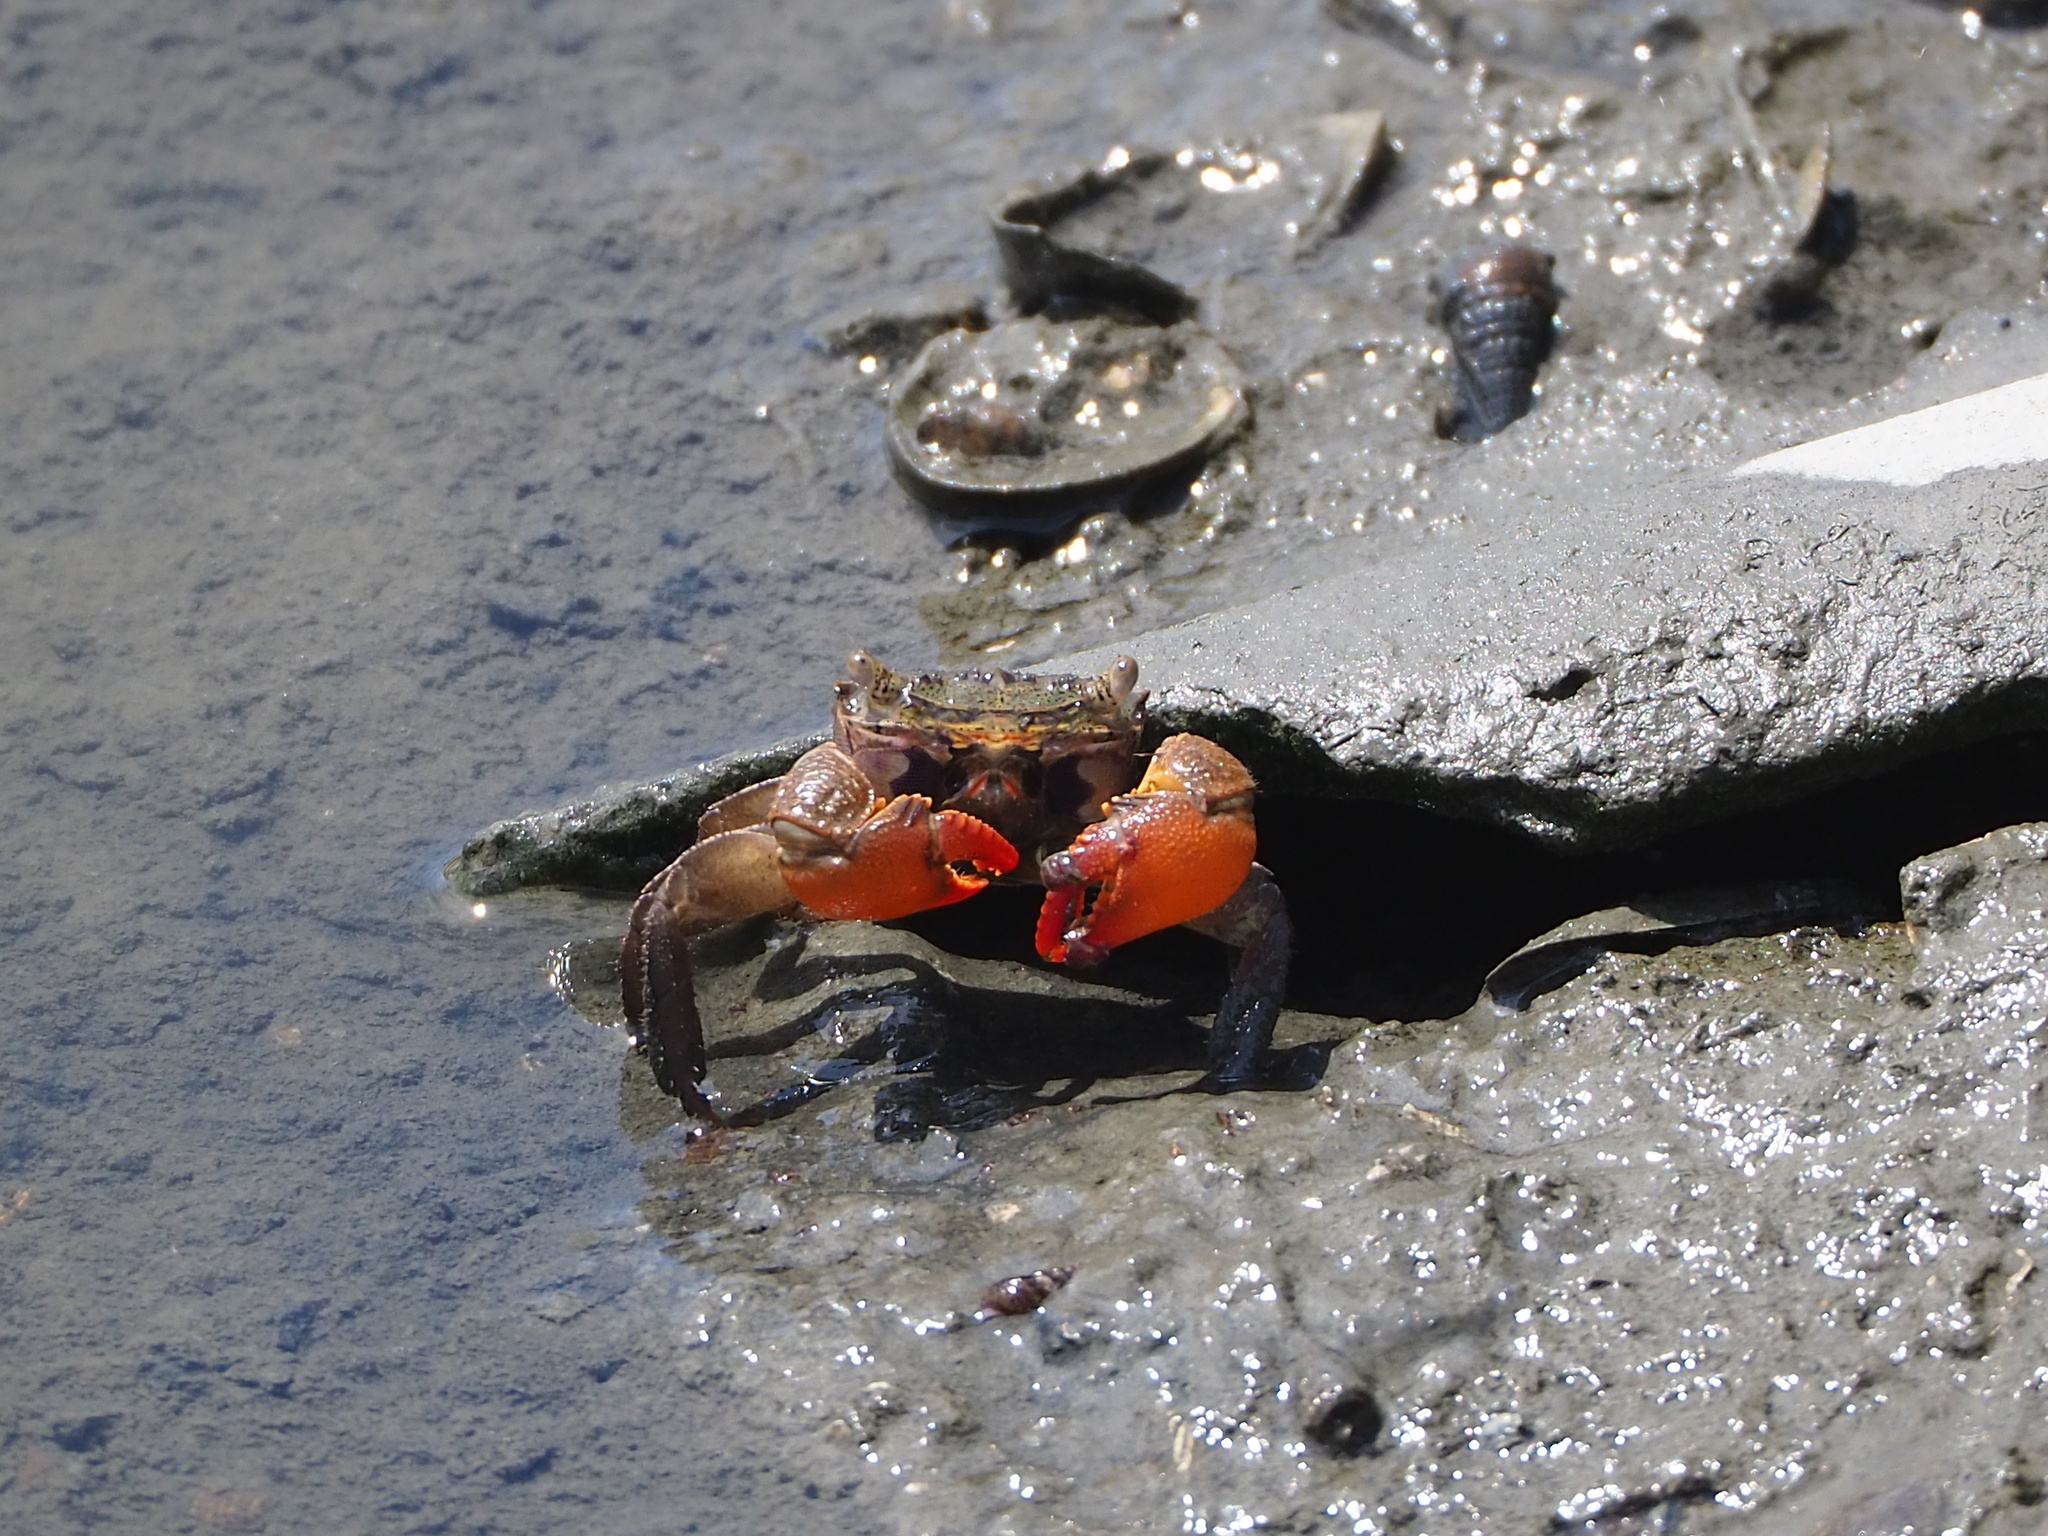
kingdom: Animalia
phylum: Arthropoda
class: Malacostraca
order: Decapoda
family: Sesarmidae
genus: Parasesarma
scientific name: Parasesarma insulare
